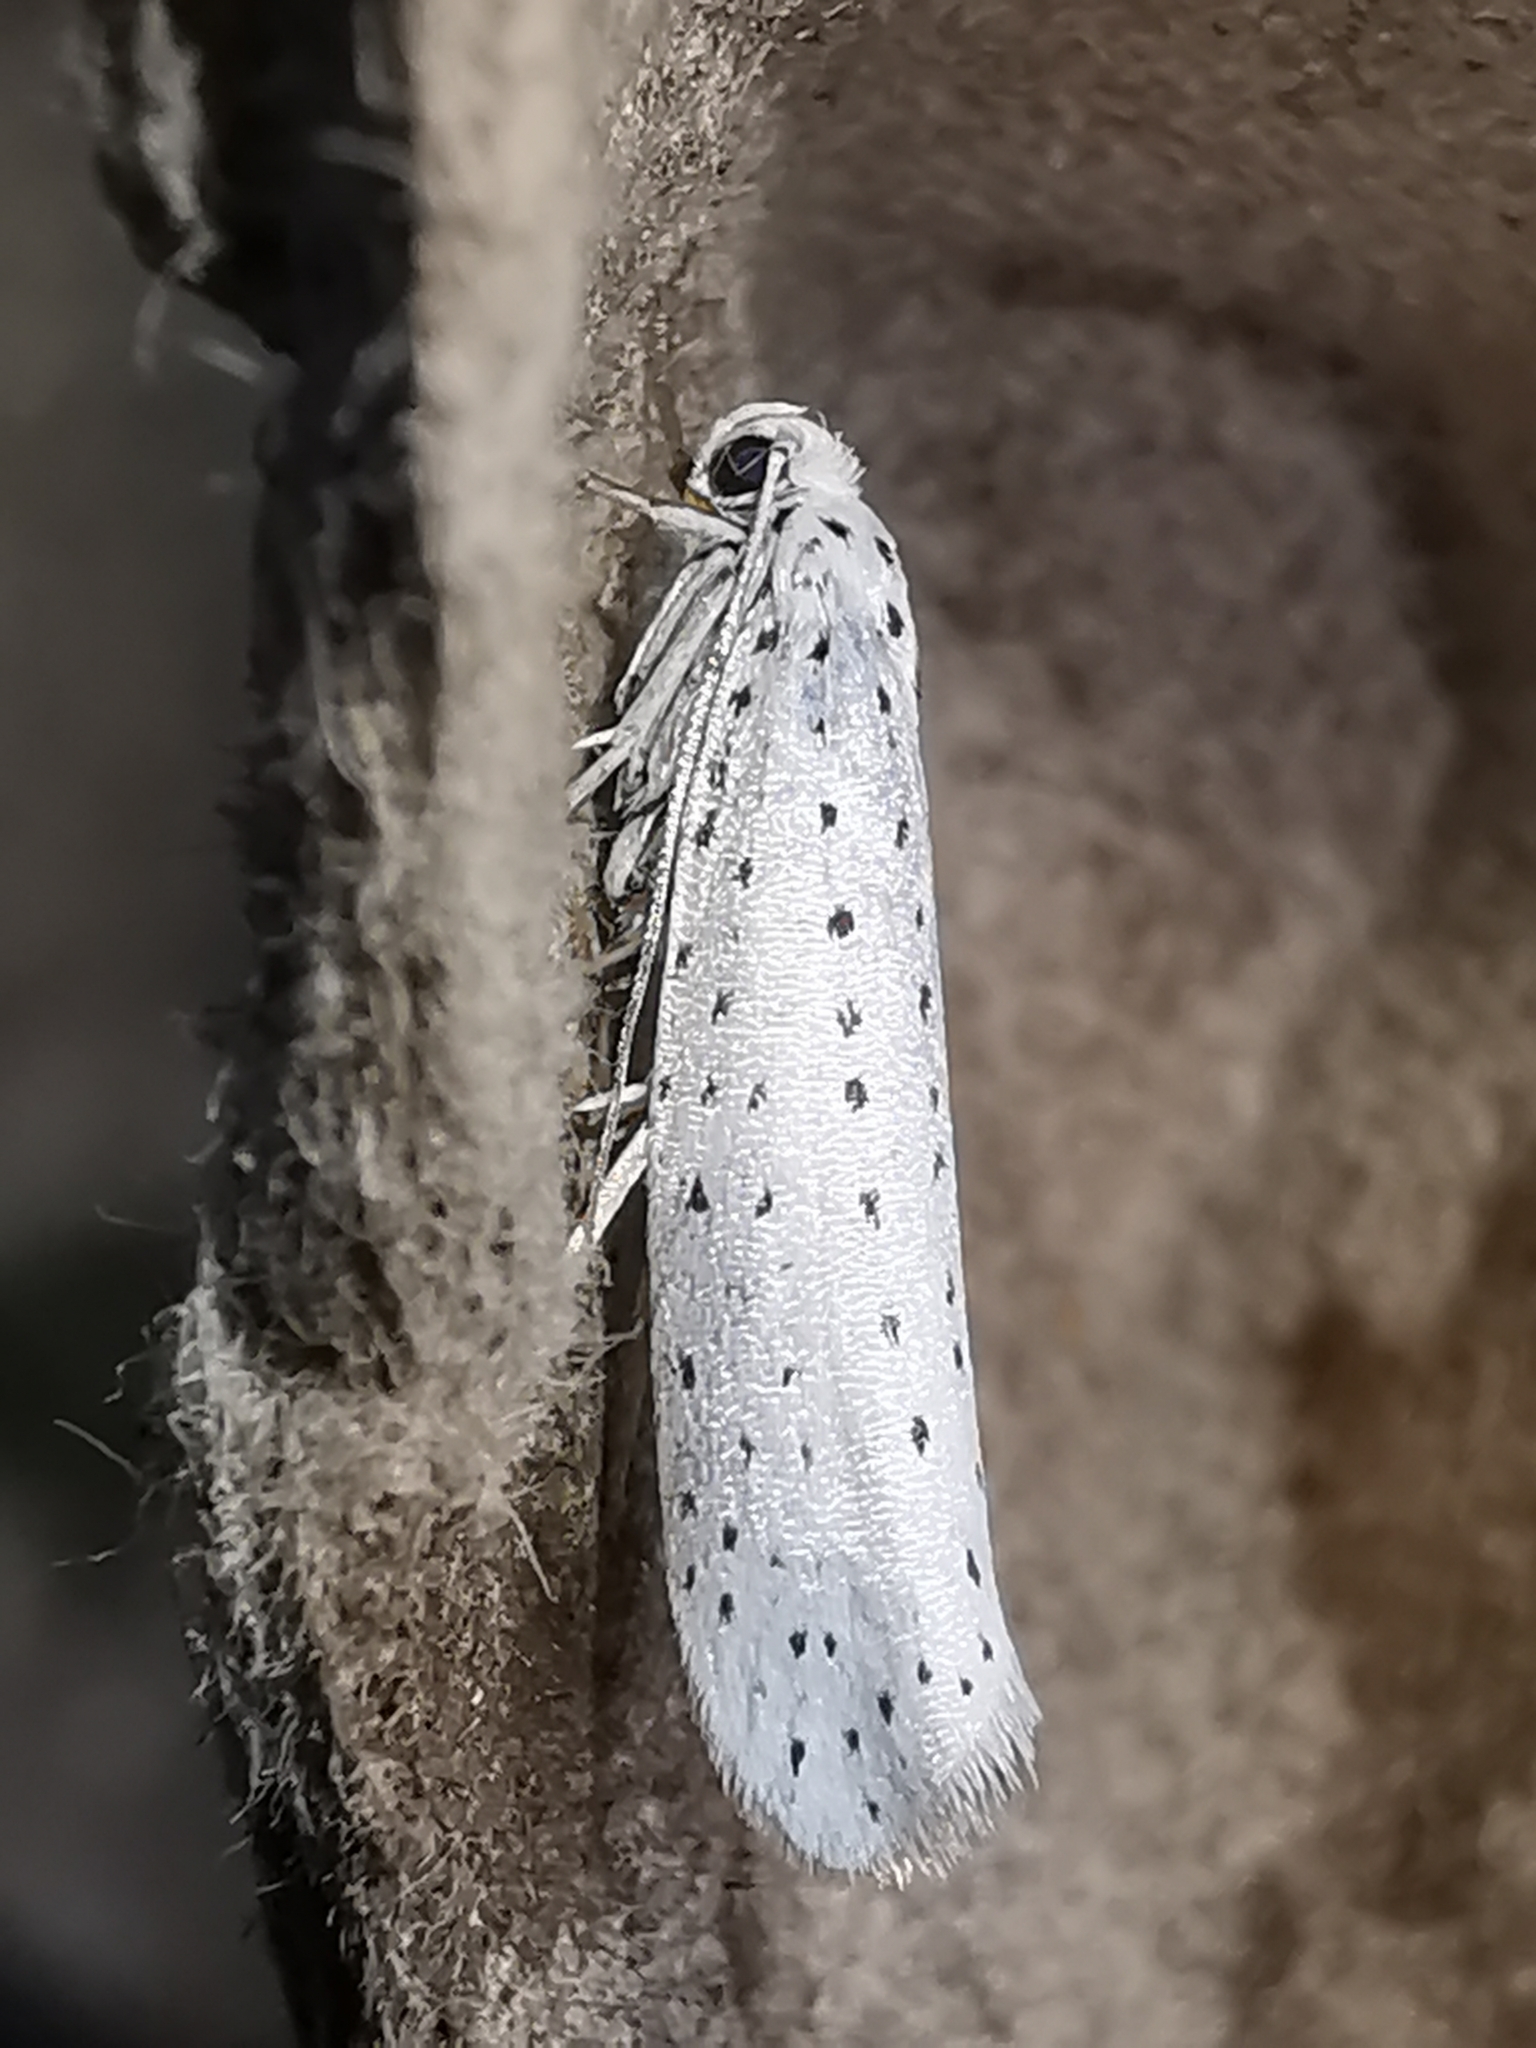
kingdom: Animalia
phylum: Arthropoda
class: Insecta
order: Lepidoptera
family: Yponomeutidae
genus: Yponomeuta
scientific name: Yponomeuta evonymella
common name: Bird-cherry ermine
